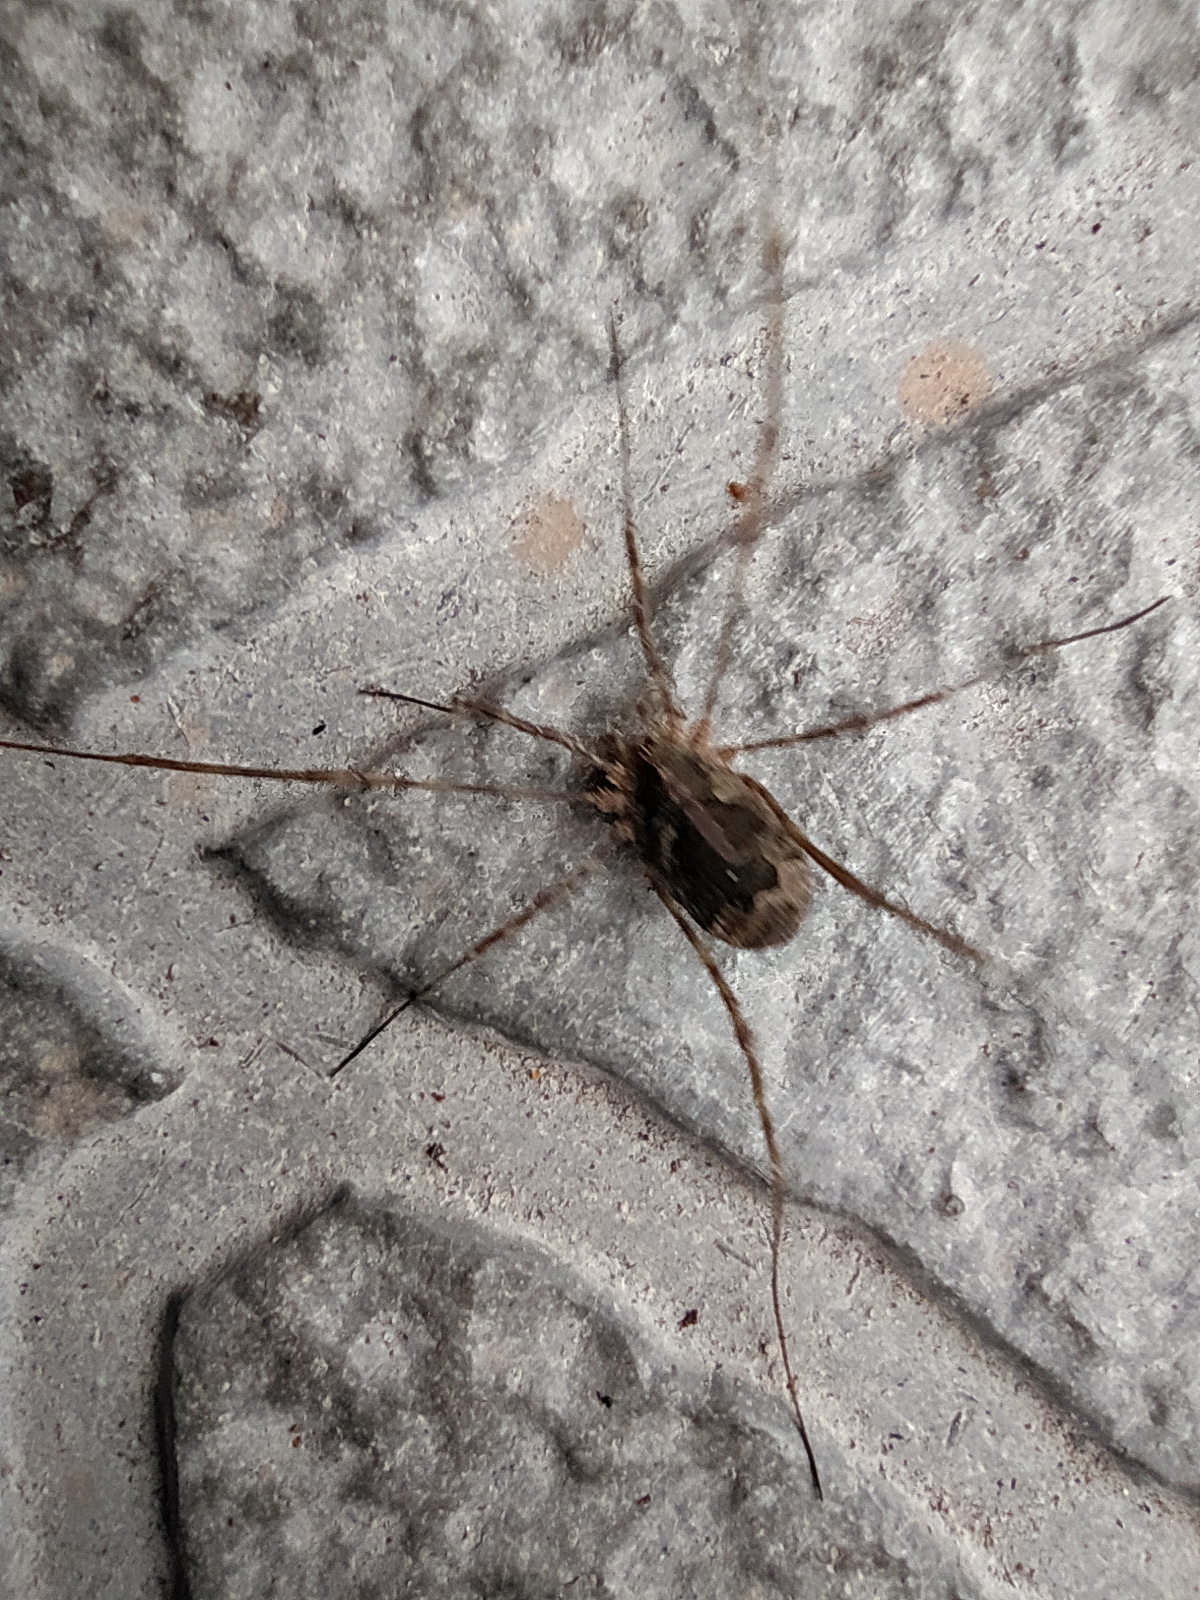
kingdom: Animalia
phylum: Arthropoda
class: Arachnida
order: Opiliones
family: Phalangiidae
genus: Lacinius
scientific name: Lacinius dentiger
